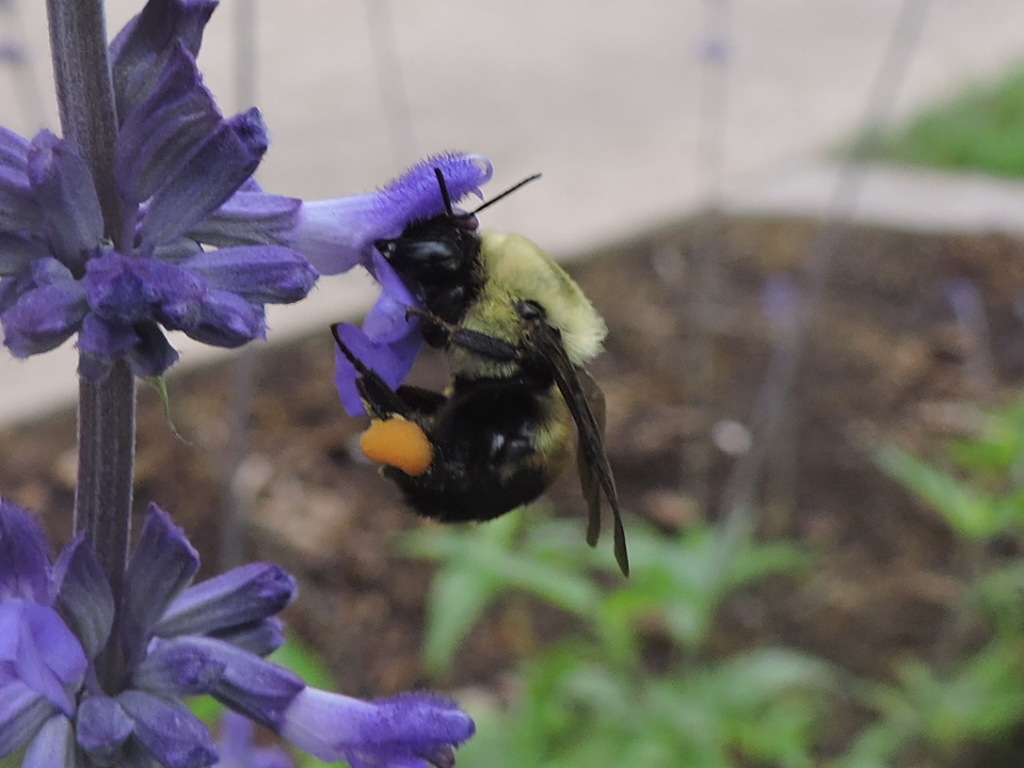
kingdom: Animalia
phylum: Arthropoda
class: Insecta
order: Hymenoptera
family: Apidae
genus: Bombus
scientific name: Bombus griseocollis
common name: Brown-belted bumble bee
